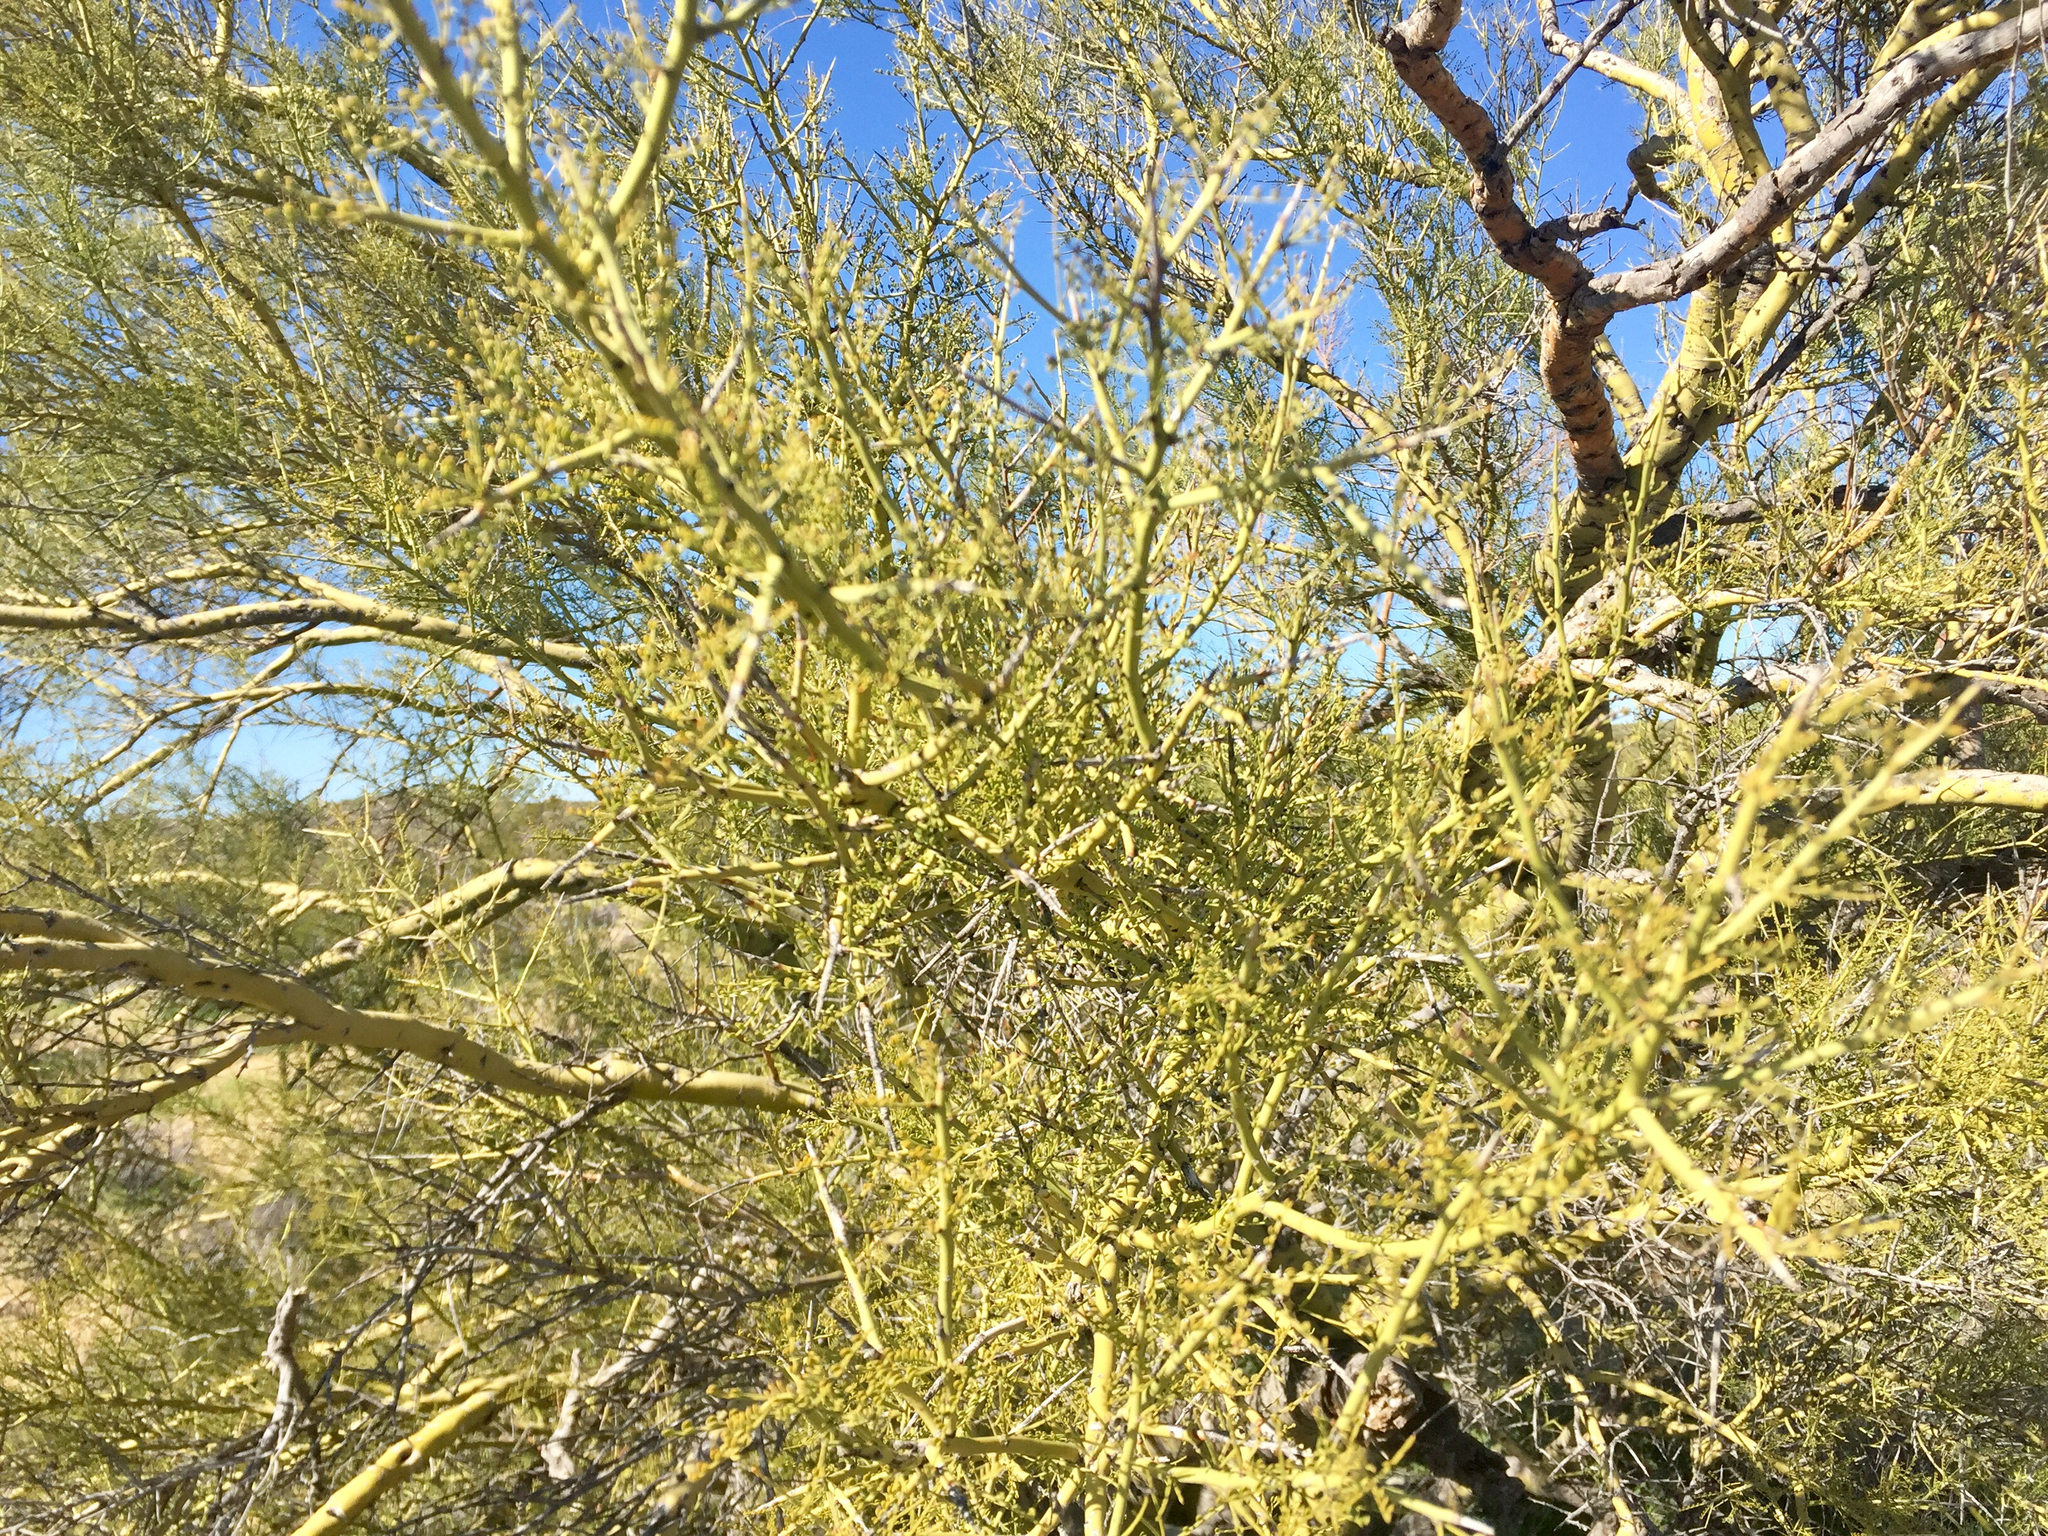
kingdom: Plantae
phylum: Tracheophyta
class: Magnoliopsida
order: Fabales
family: Fabaceae
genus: Parkinsonia
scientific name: Parkinsonia microphylla
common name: Yellow paloverde
